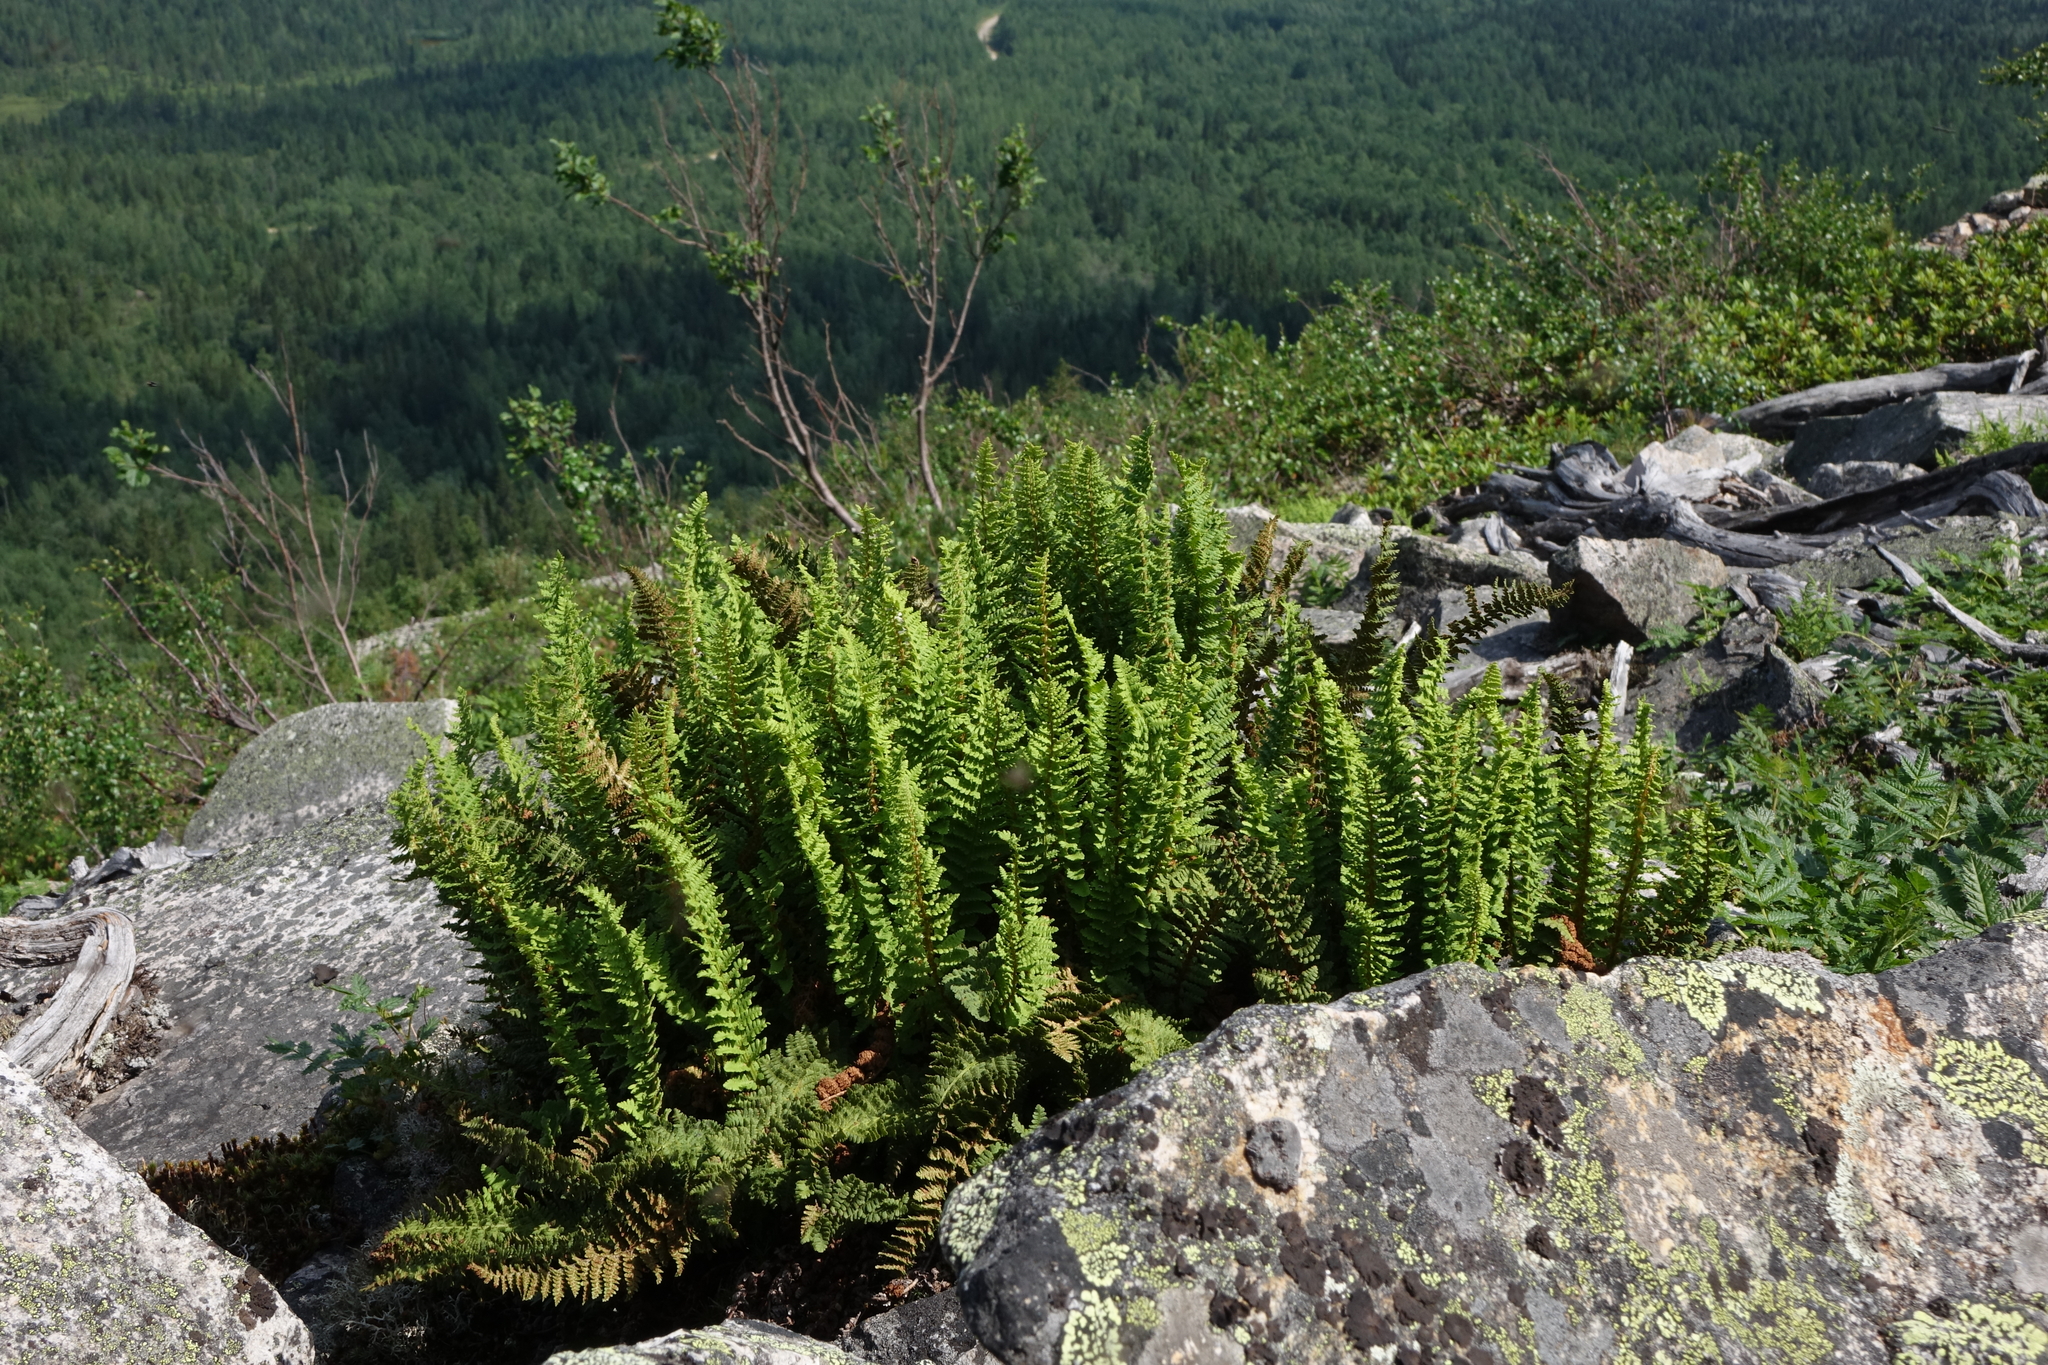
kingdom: Plantae
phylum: Tracheophyta
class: Polypodiopsida
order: Polypodiales
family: Dryopteridaceae
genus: Dryopteris
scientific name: Dryopteris fragrans
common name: Fragrant wood fern
